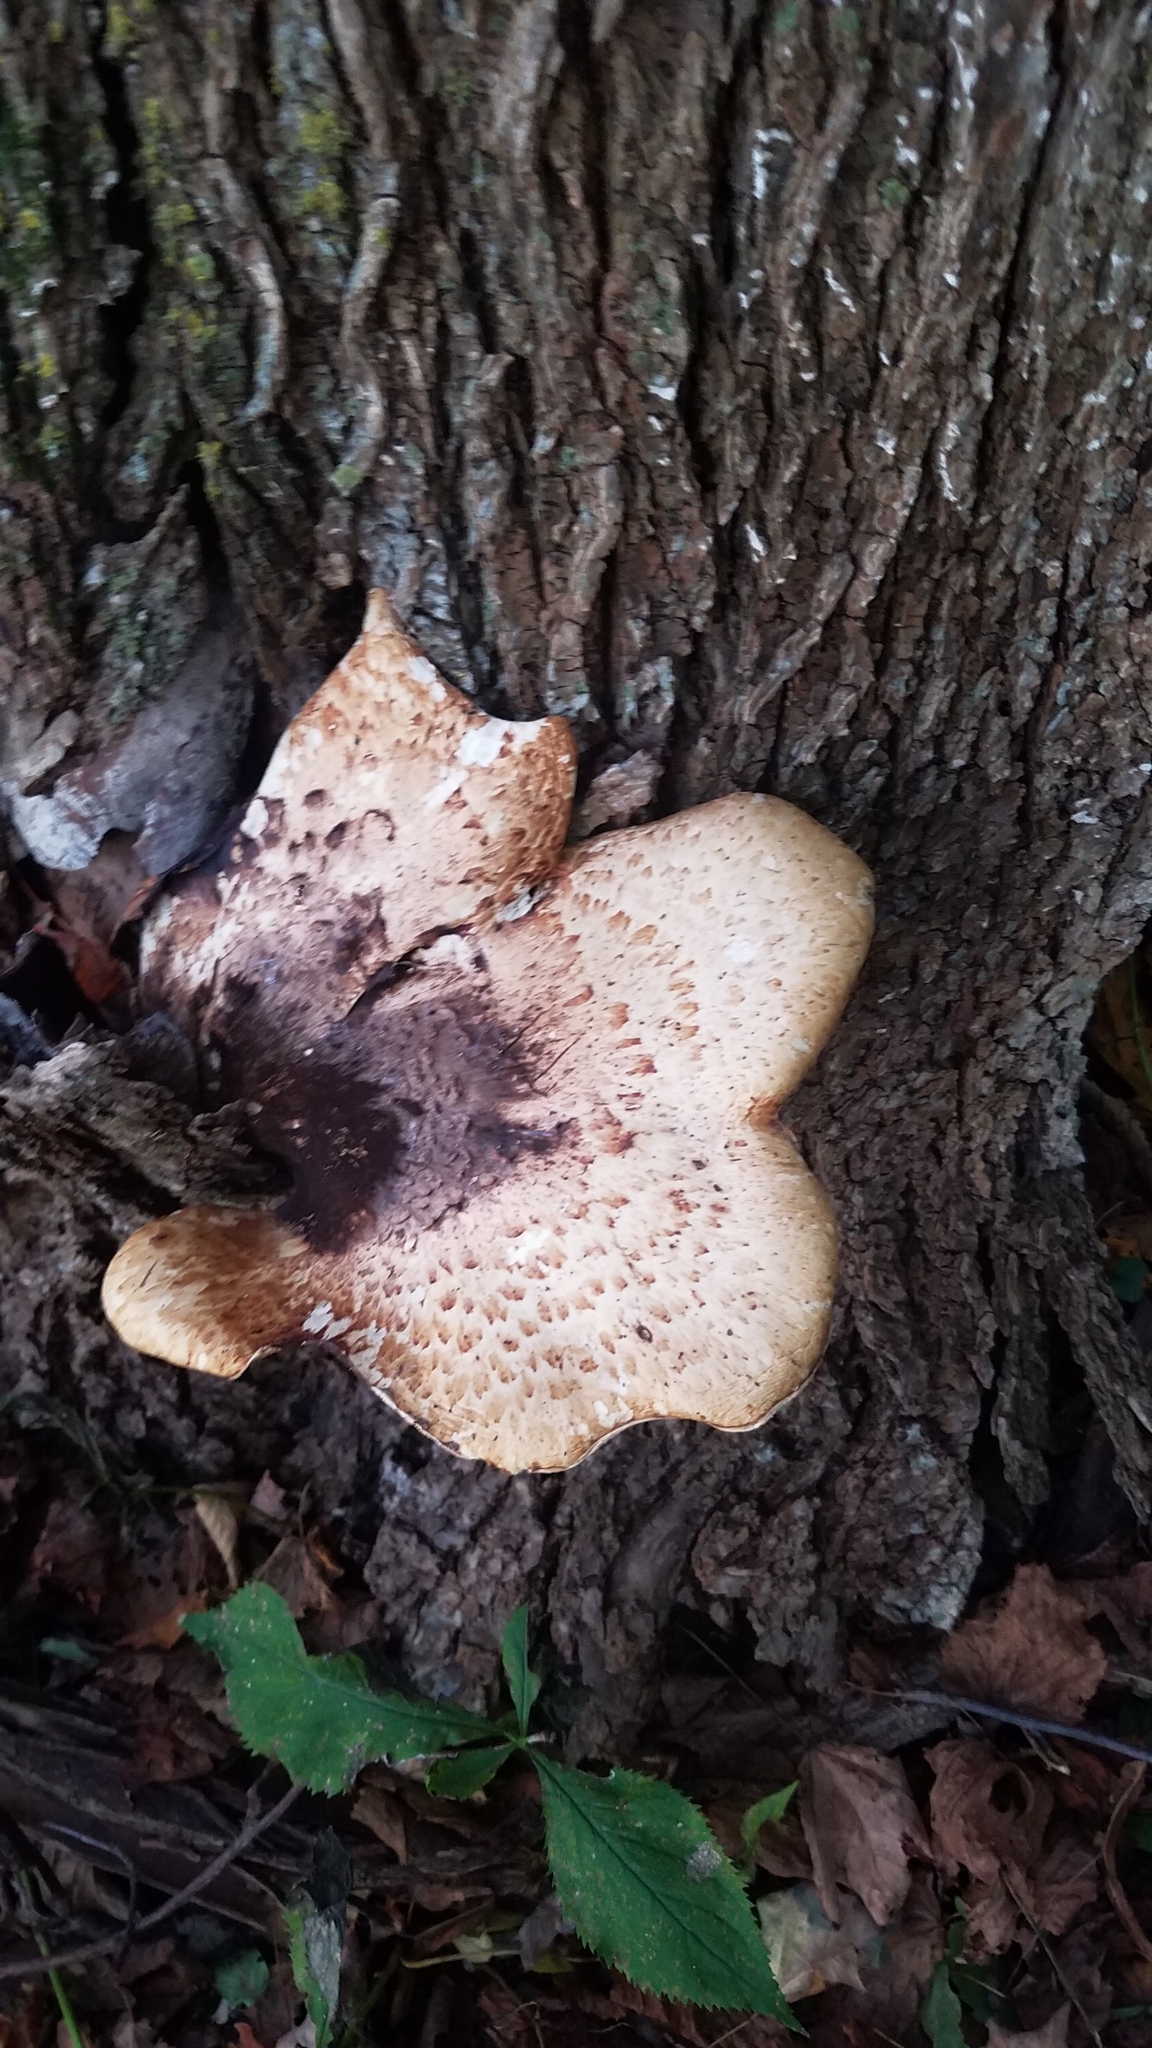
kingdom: Fungi
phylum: Basidiomycota
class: Agaricomycetes
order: Polyporales
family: Polyporaceae
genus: Cerioporus
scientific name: Cerioporus squamosus
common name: Dryad's saddle
